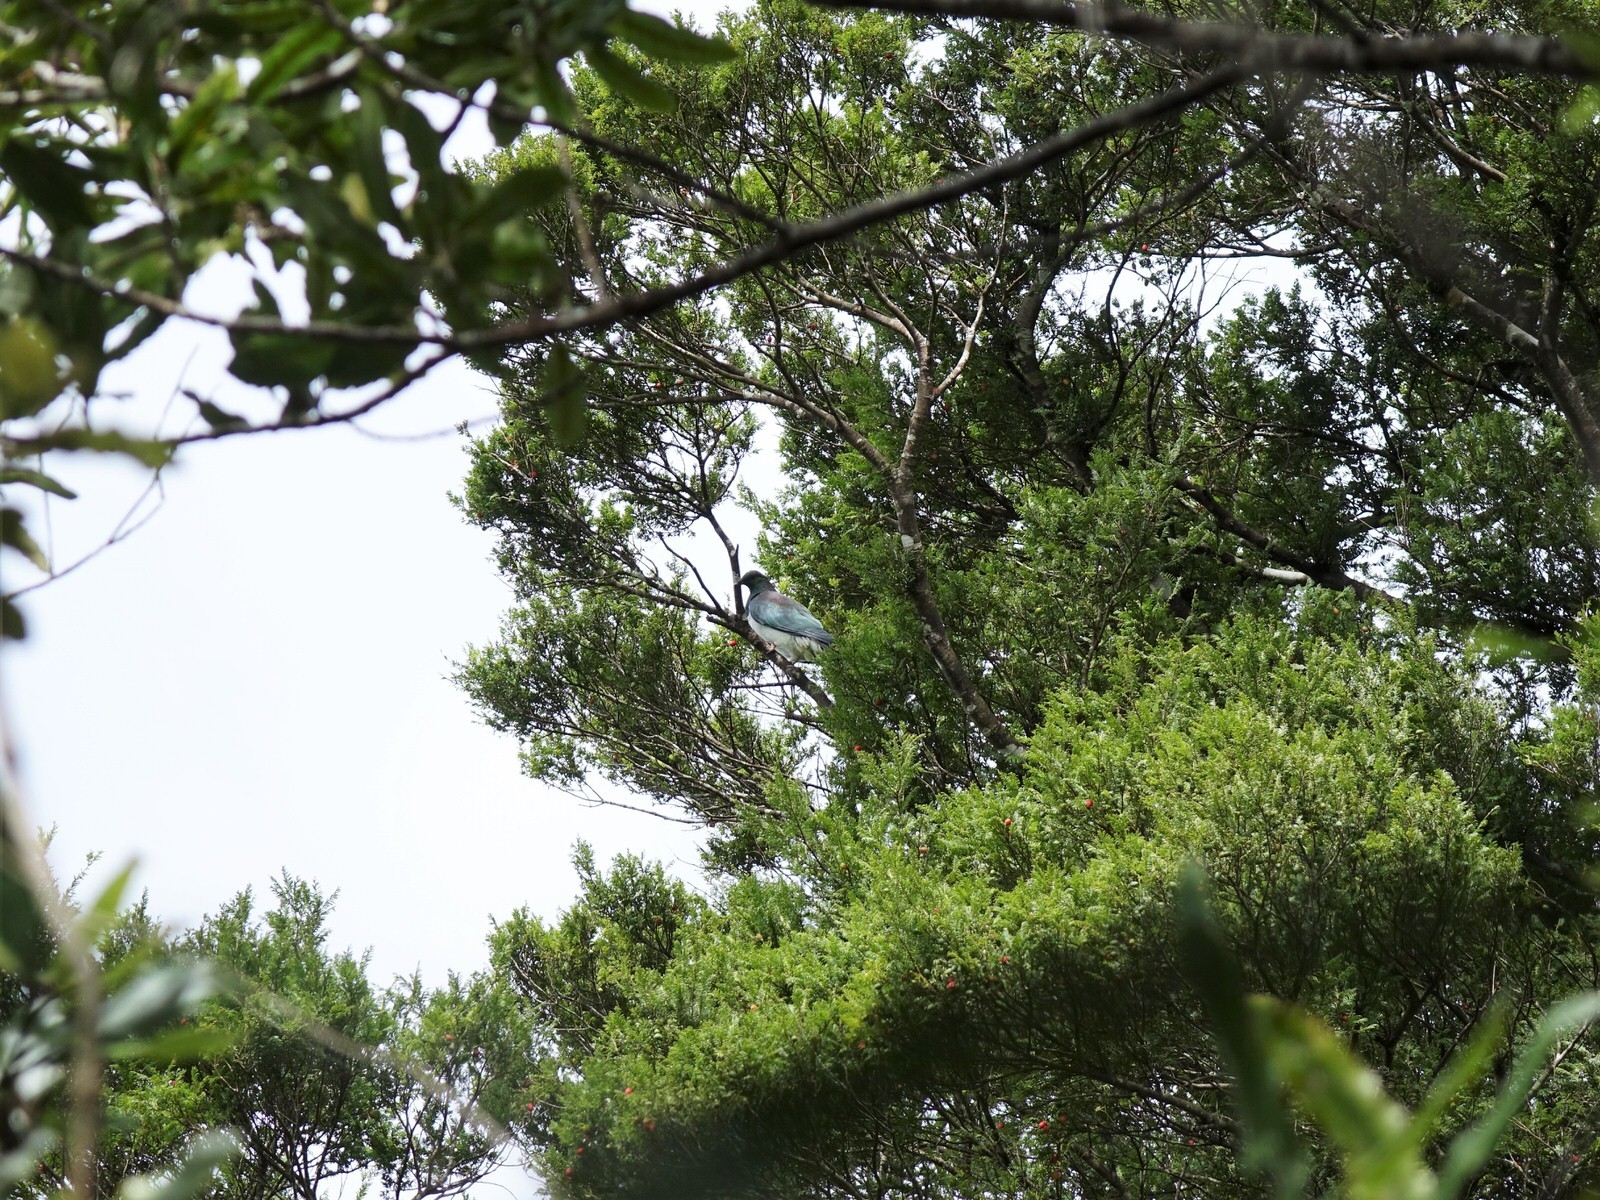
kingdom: Animalia
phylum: Chordata
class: Aves
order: Columbiformes
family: Columbidae
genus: Hemiphaga
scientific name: Hemiphaga novaeseelandiae
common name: New zealand pigeon
